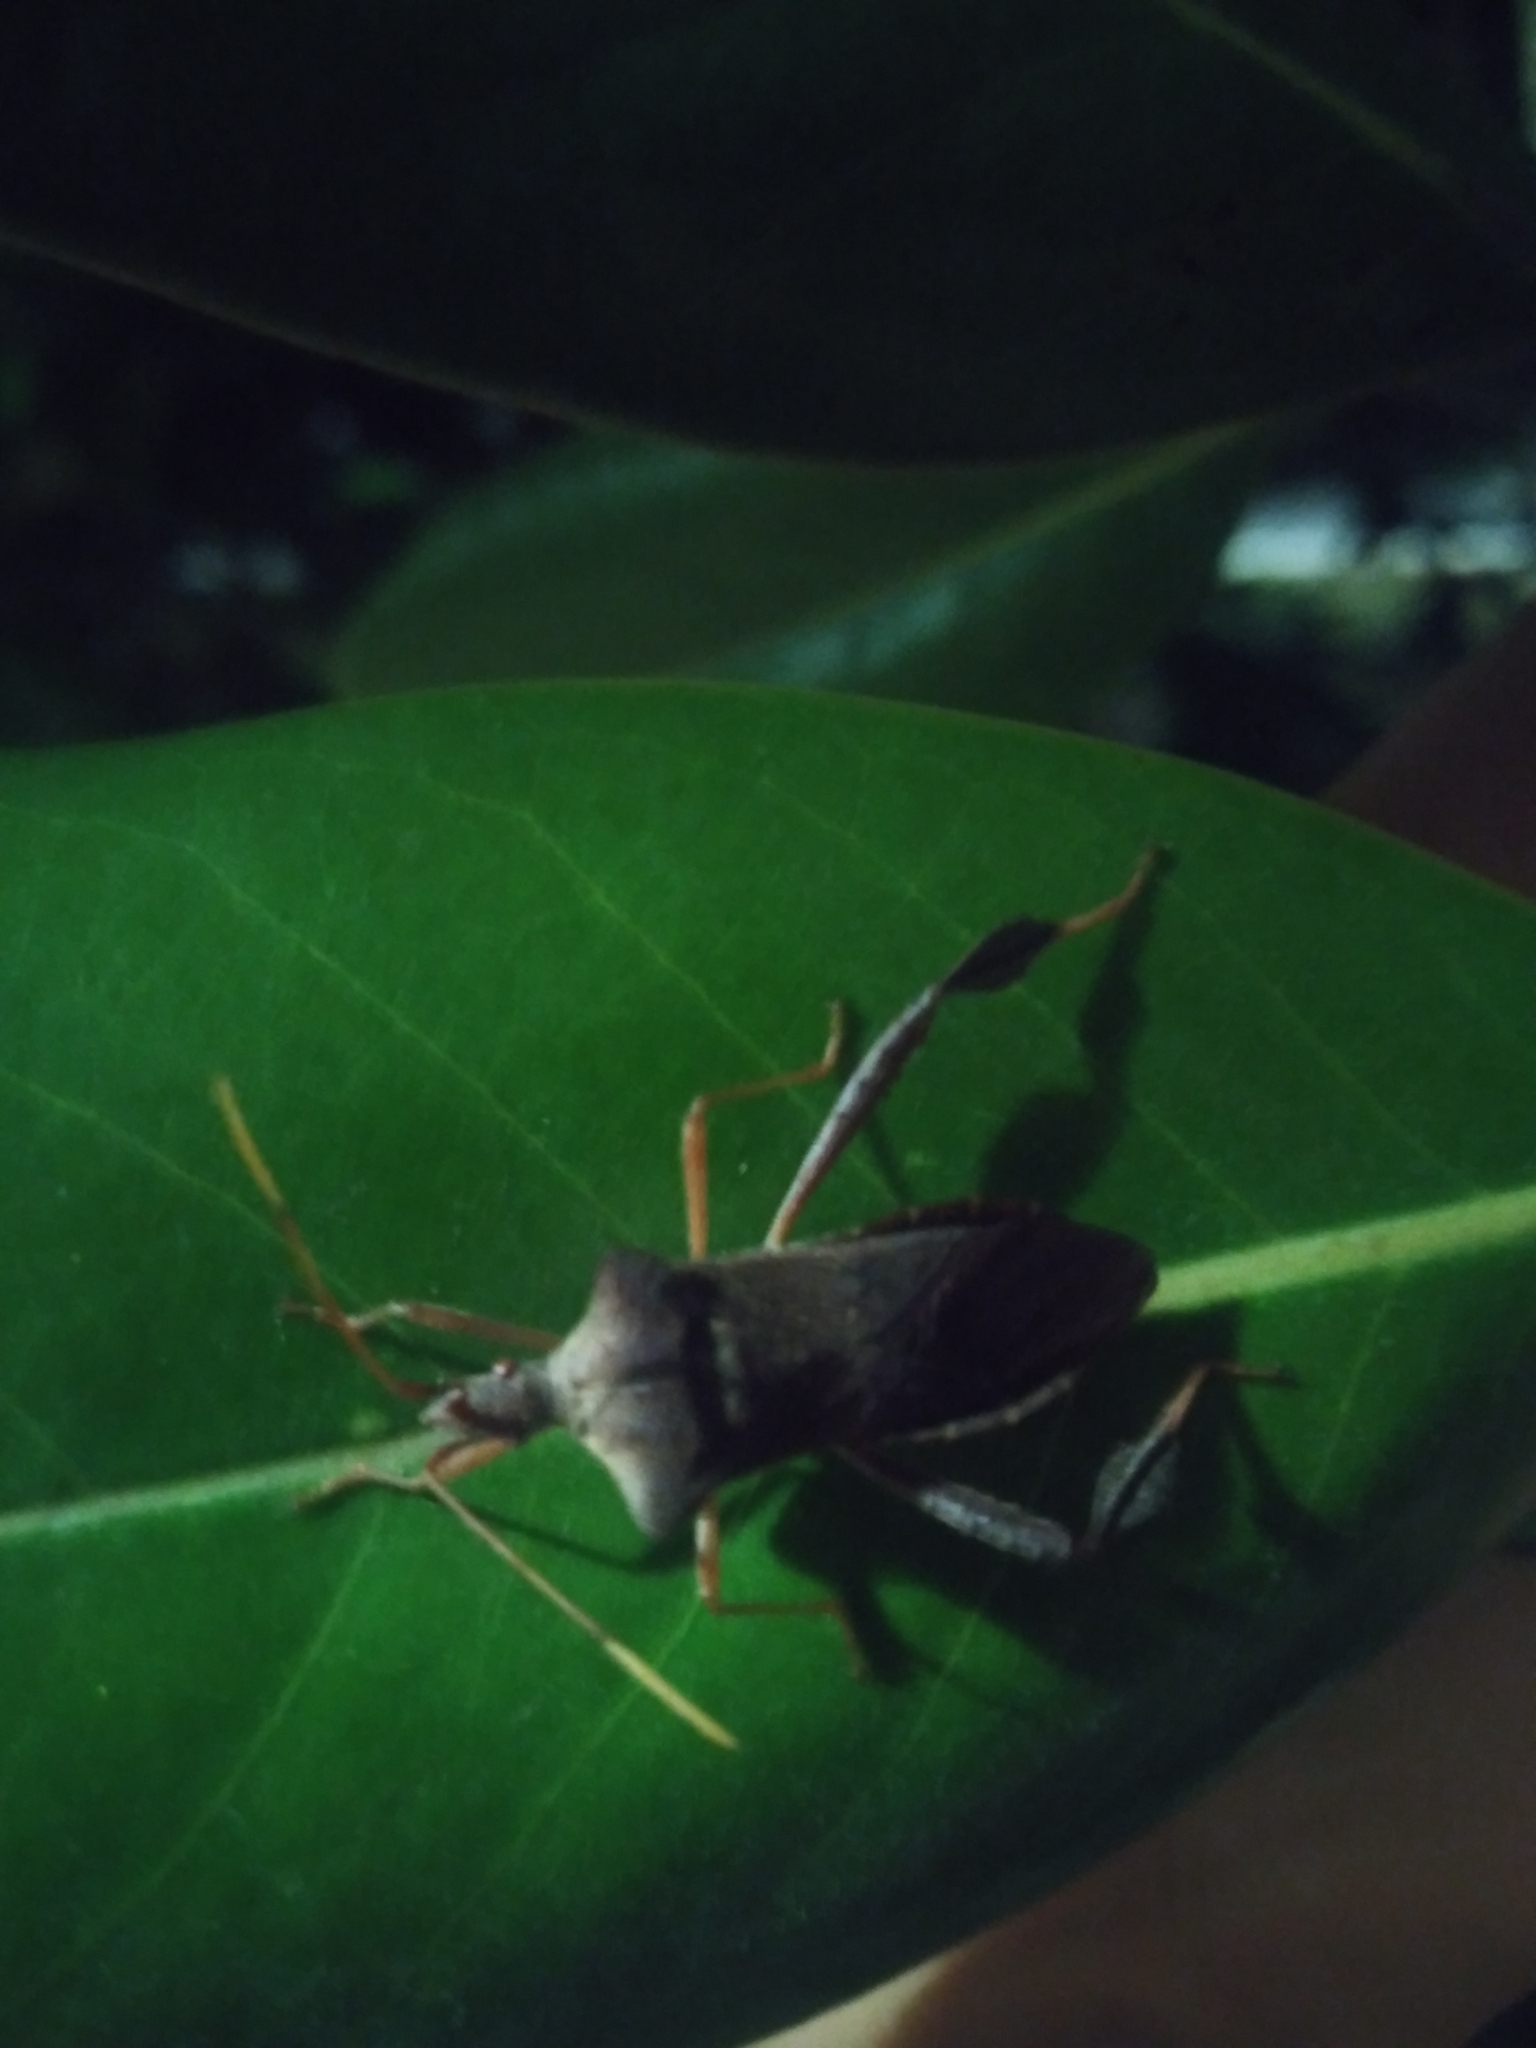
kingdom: Animalia
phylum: Arthropoda
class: Insecta
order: Hemiptera
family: Coreidae
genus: Leptoglossus
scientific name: Leptoglossus fulvicornis
